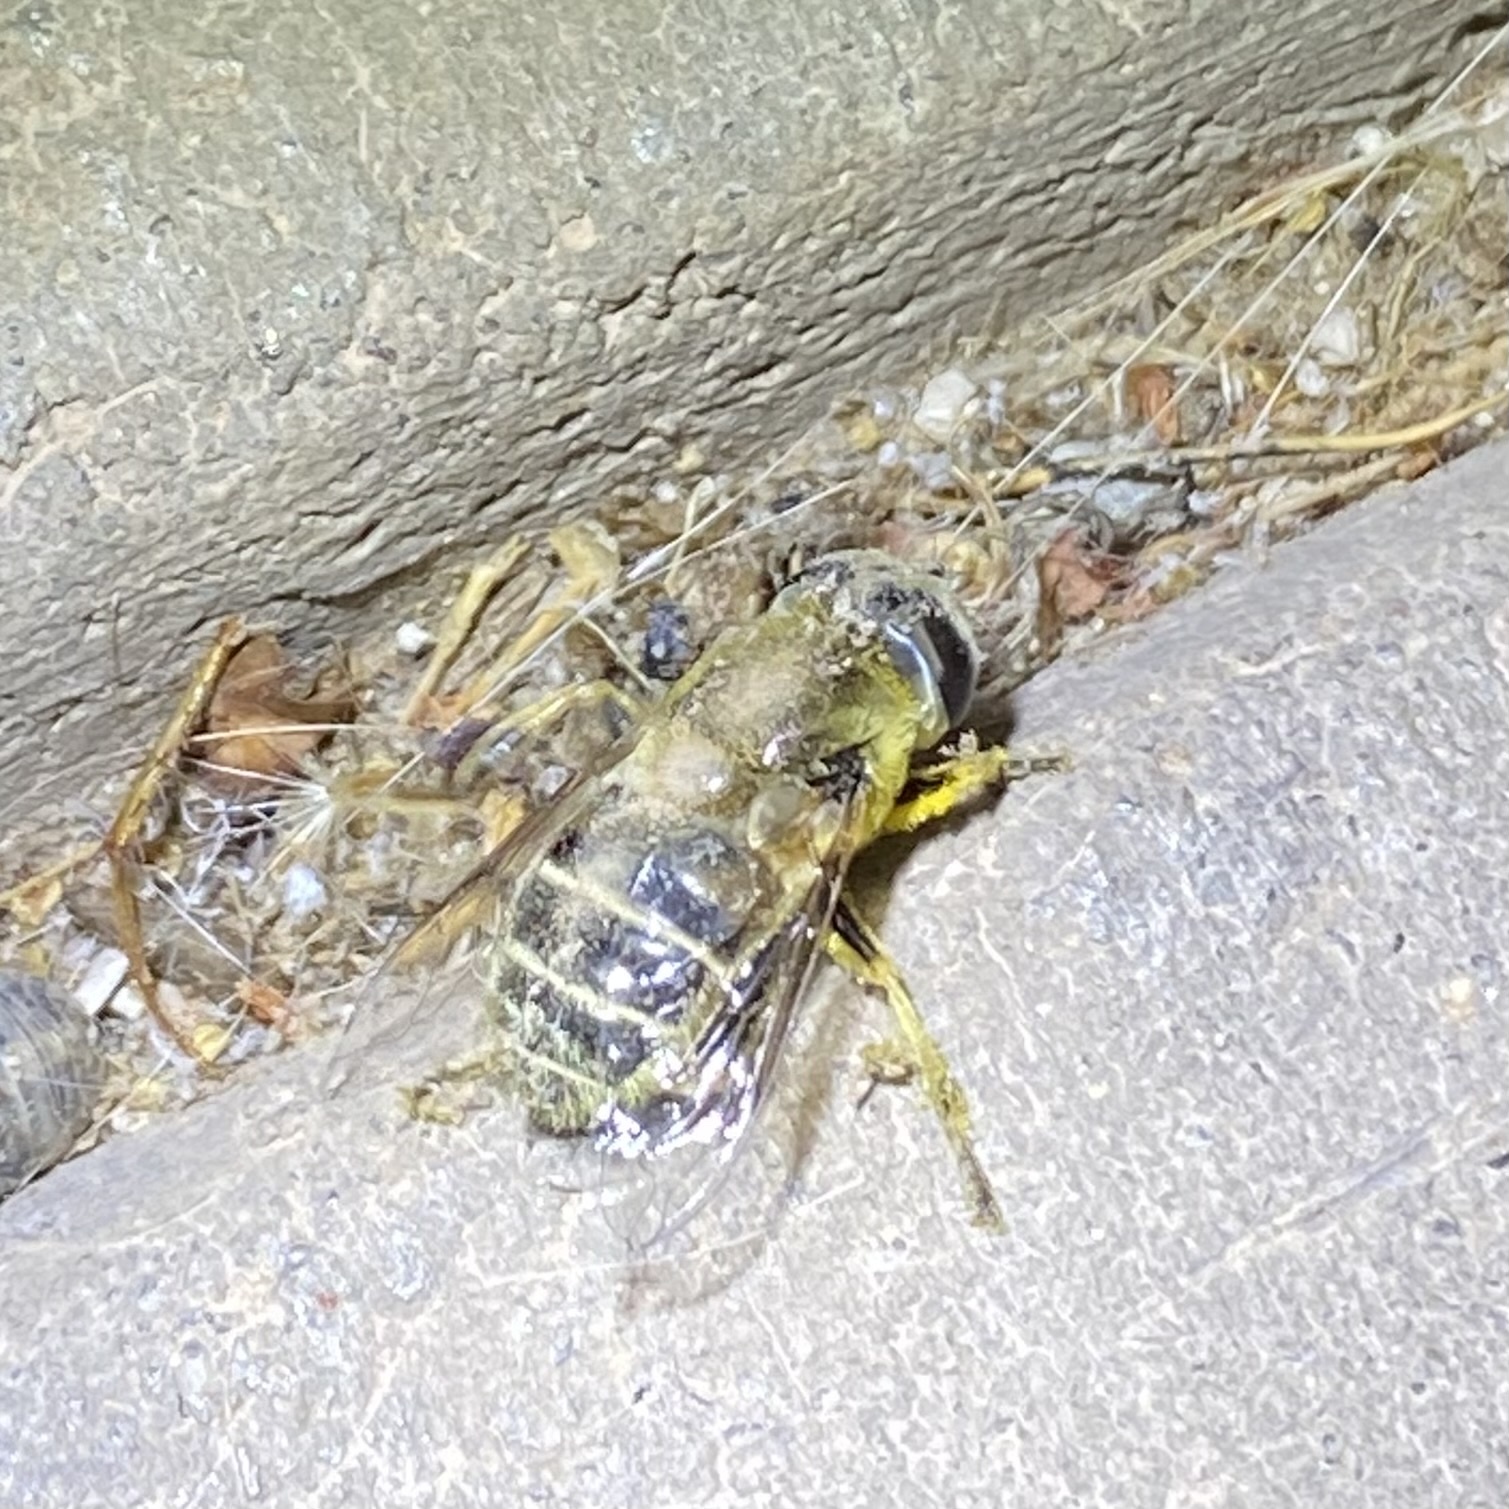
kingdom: Animalia
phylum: Arthropoda
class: Insecta
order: Diptera
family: Syrphidae
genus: Eristalis
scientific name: Eristalis stipator
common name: Yellow-shouldered drone fly
